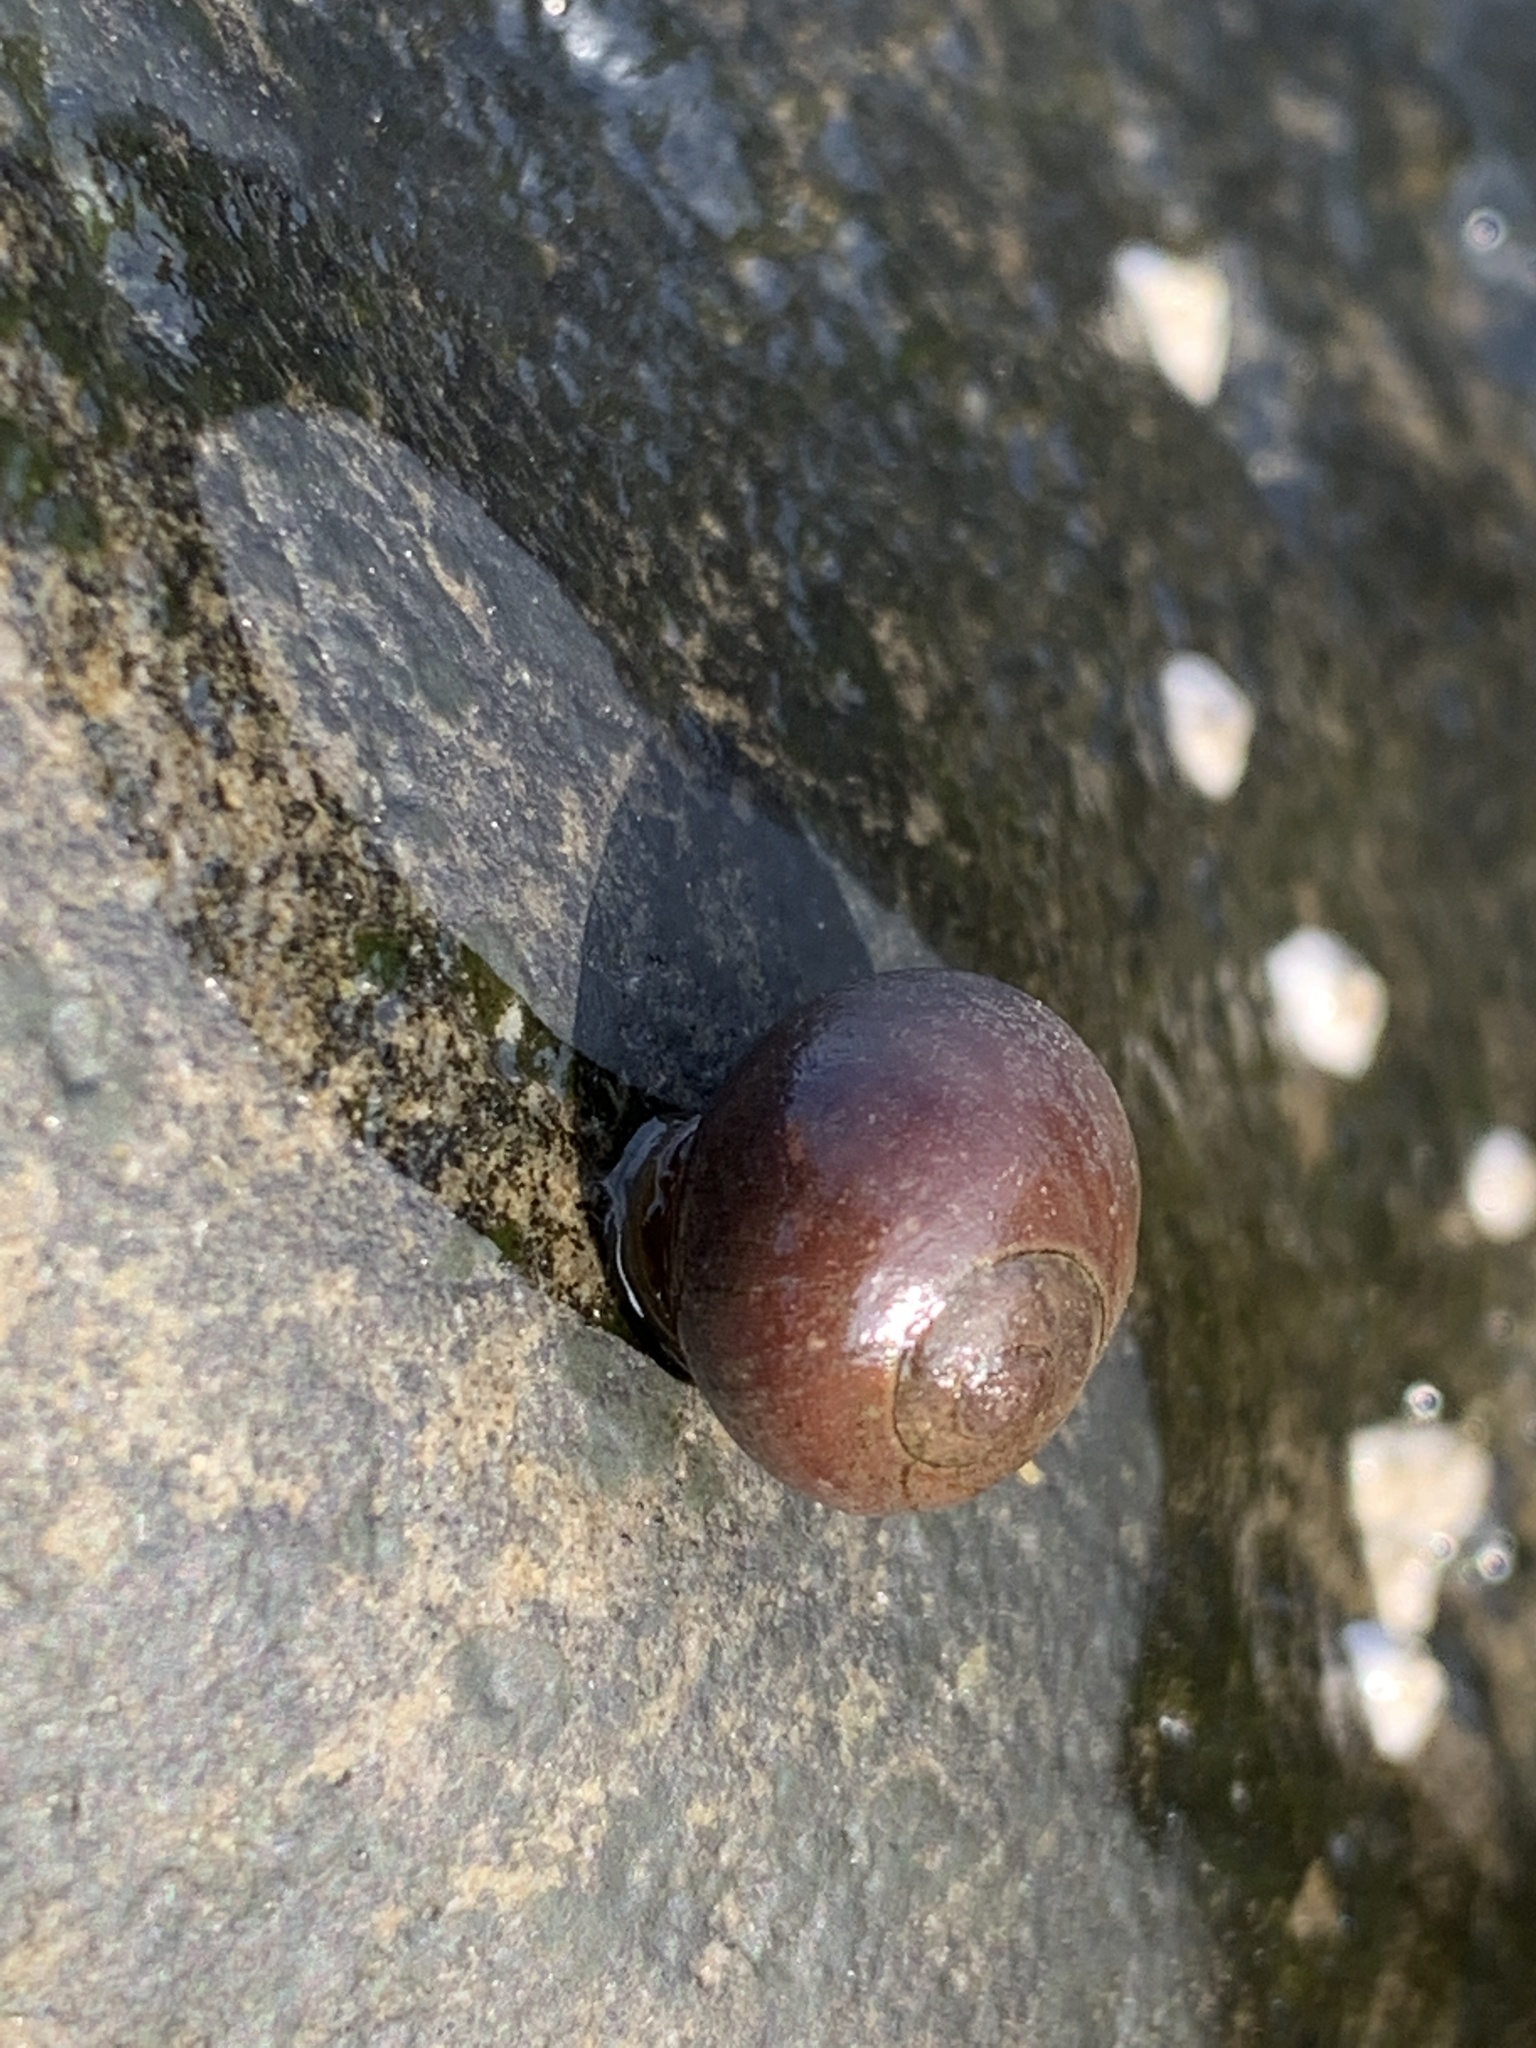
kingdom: Animalia
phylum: Mollusca
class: Gastropoda
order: Littorinimorpha
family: Littorinidae
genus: Littorina
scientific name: Littorina obtusata
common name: Flat periwinkle
